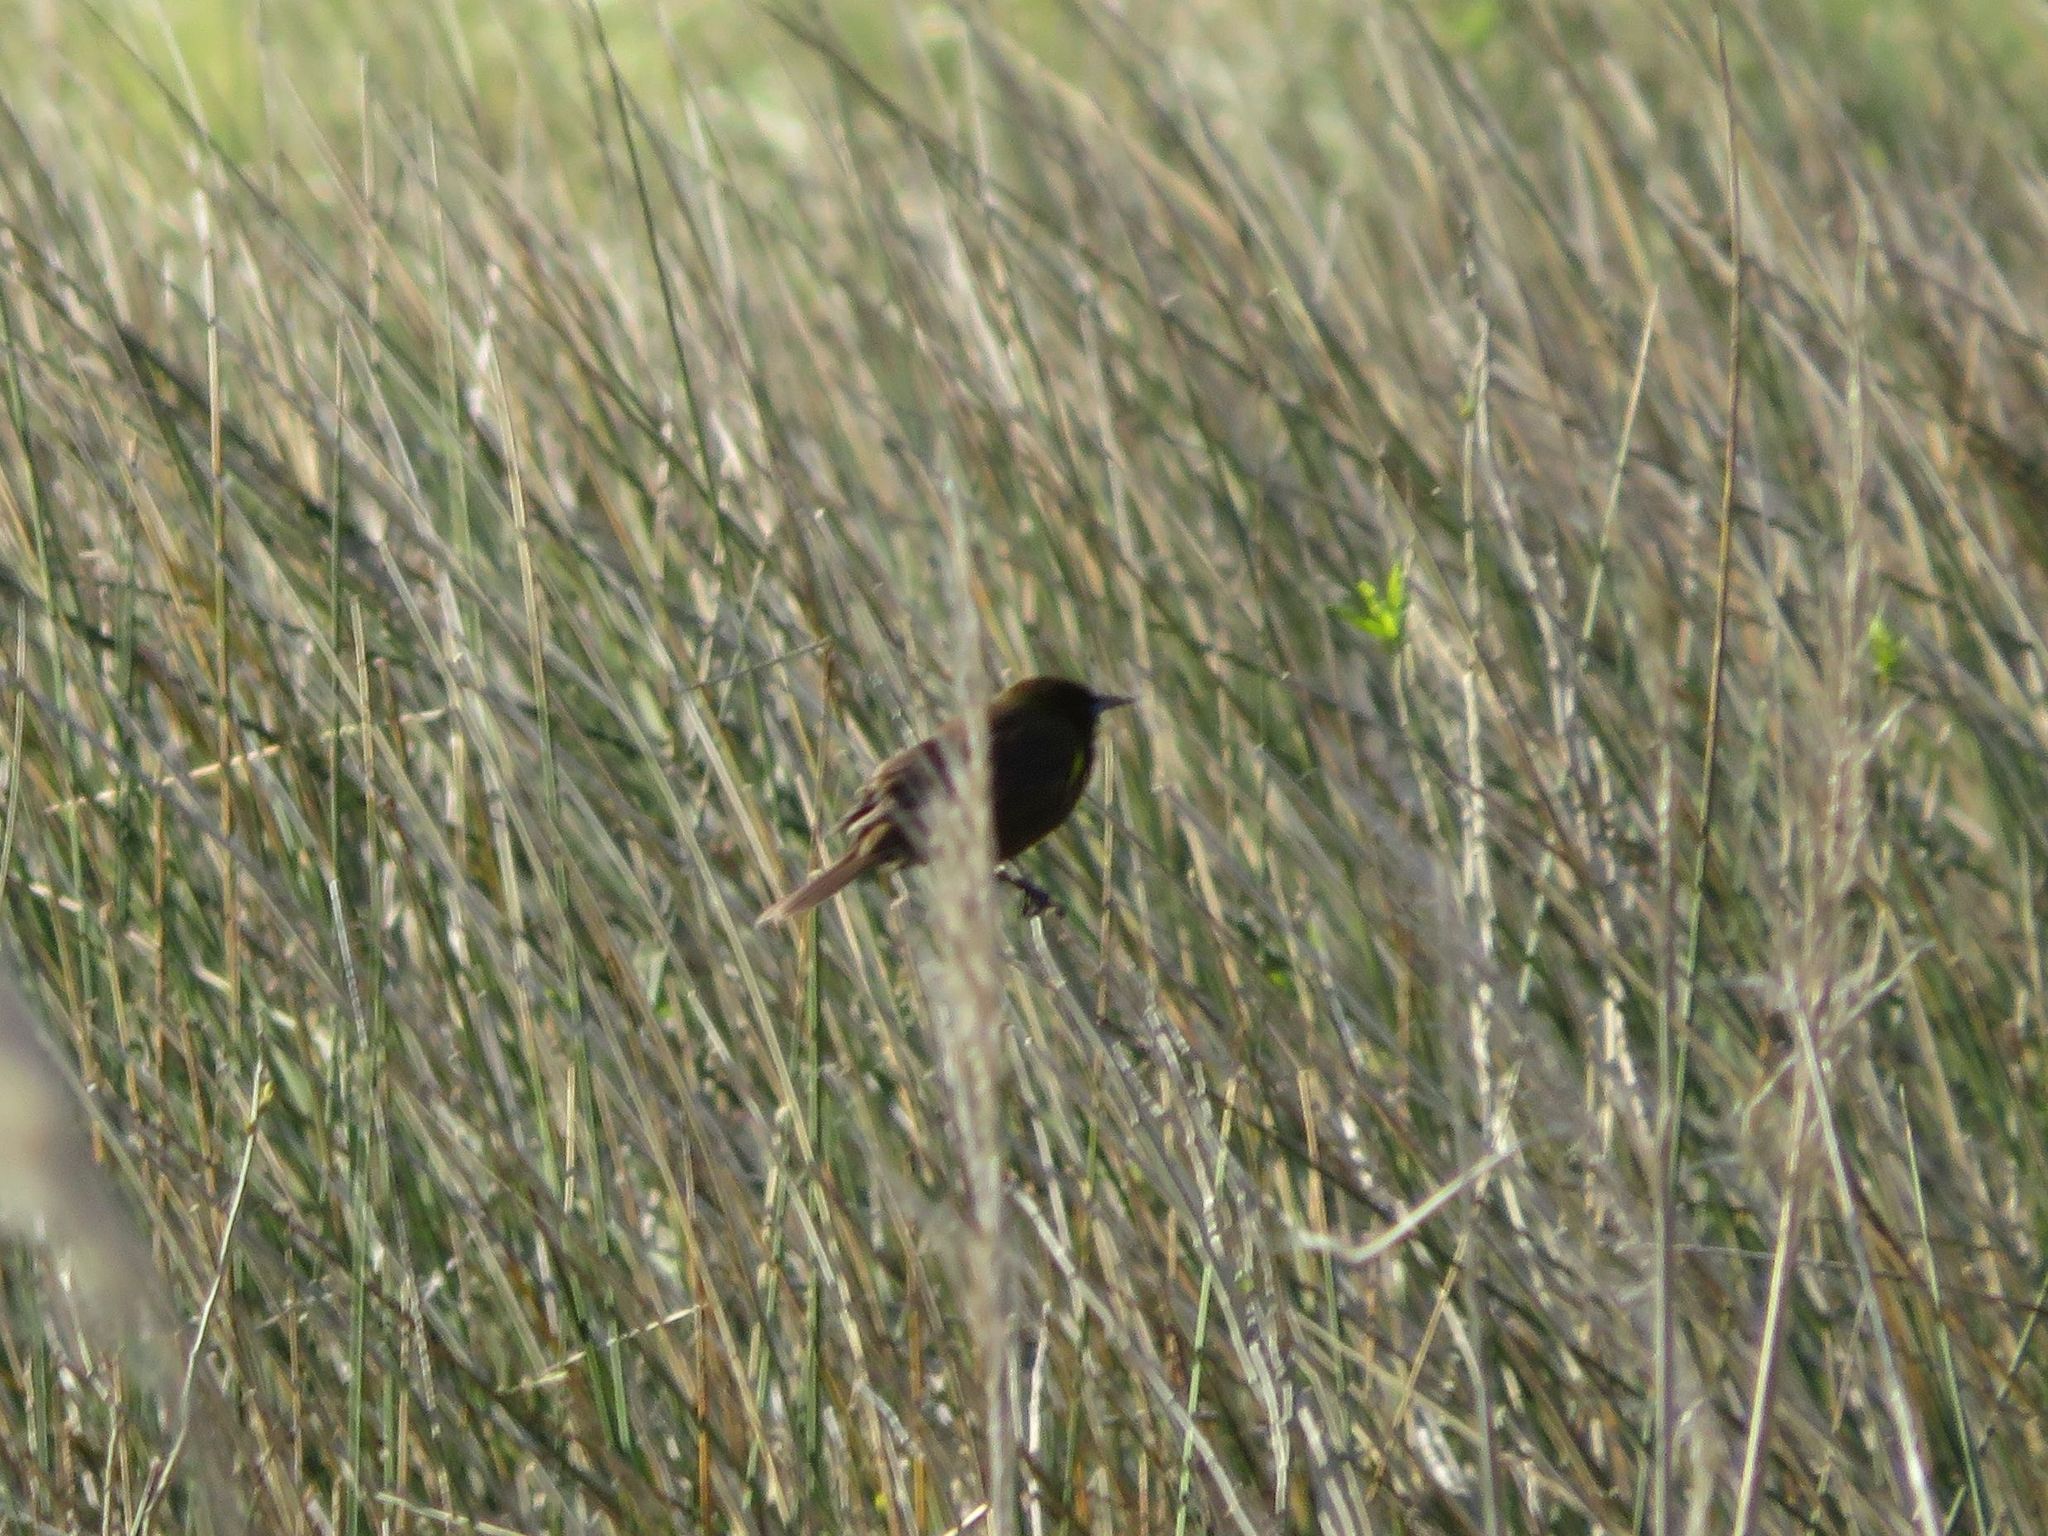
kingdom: Animalia
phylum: Chordata
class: Aves
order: Passeriformes
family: Icteridae
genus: Agelasticus
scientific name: Agelasticus thilius
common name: Yellow-winged blackbird
